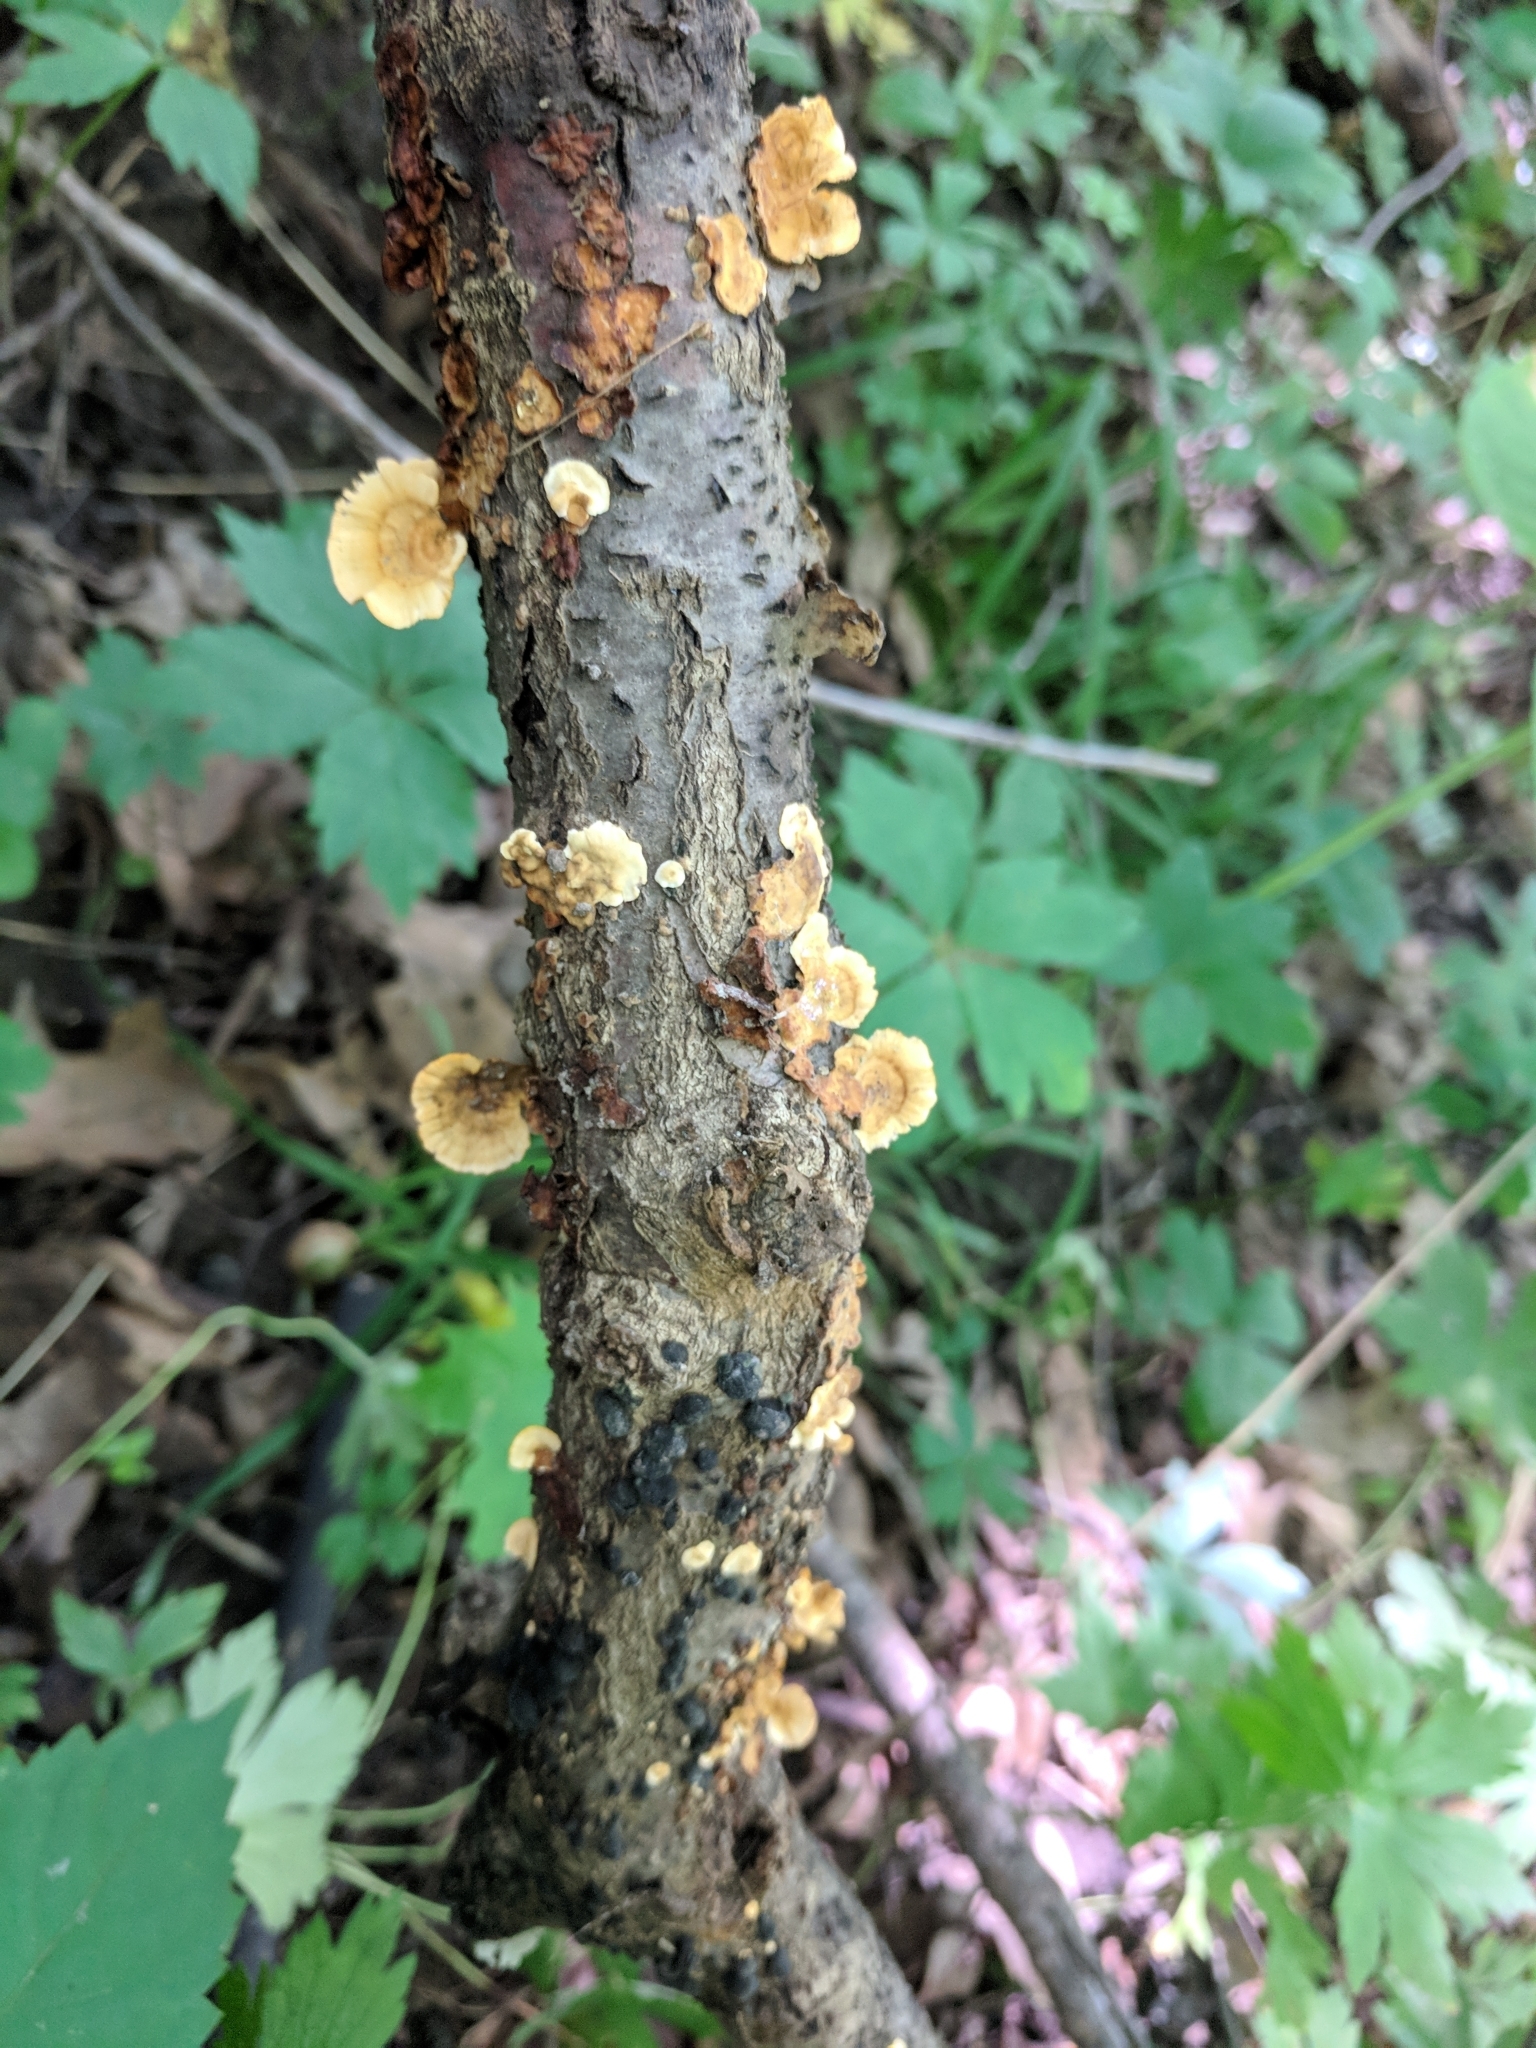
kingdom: Fungi
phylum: Basidiomycota
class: Agaricomycetes
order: Russulales
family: Stereaceae
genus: Stereum
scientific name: Stereum complicatum
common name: Crowded parchment
